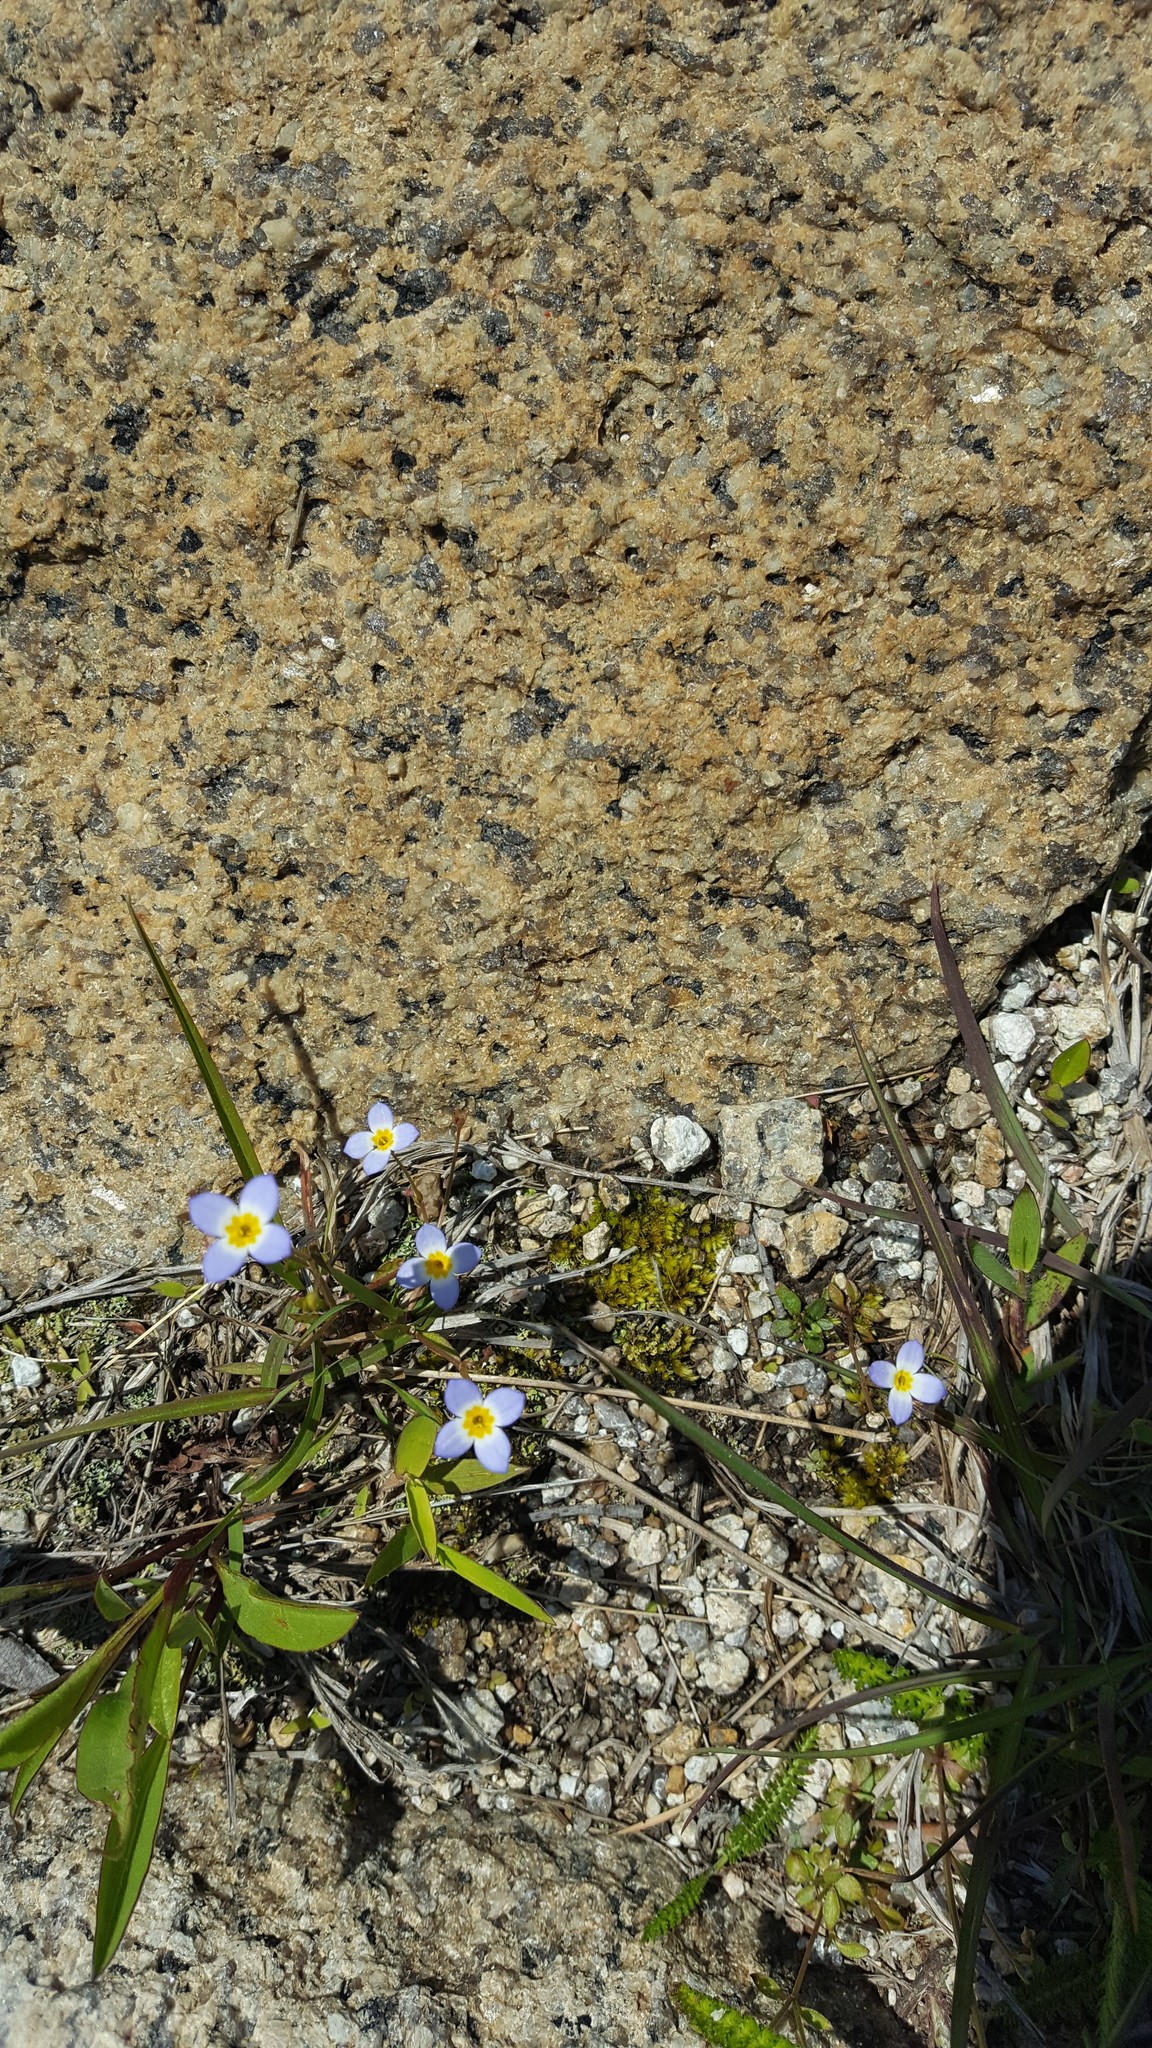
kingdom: Plantae
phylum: Tracheophyta
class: Magnoliopsida
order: Gentianales
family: Rubiaceae
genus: Houstonia
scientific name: Houstonia caerulea
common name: Bluets
